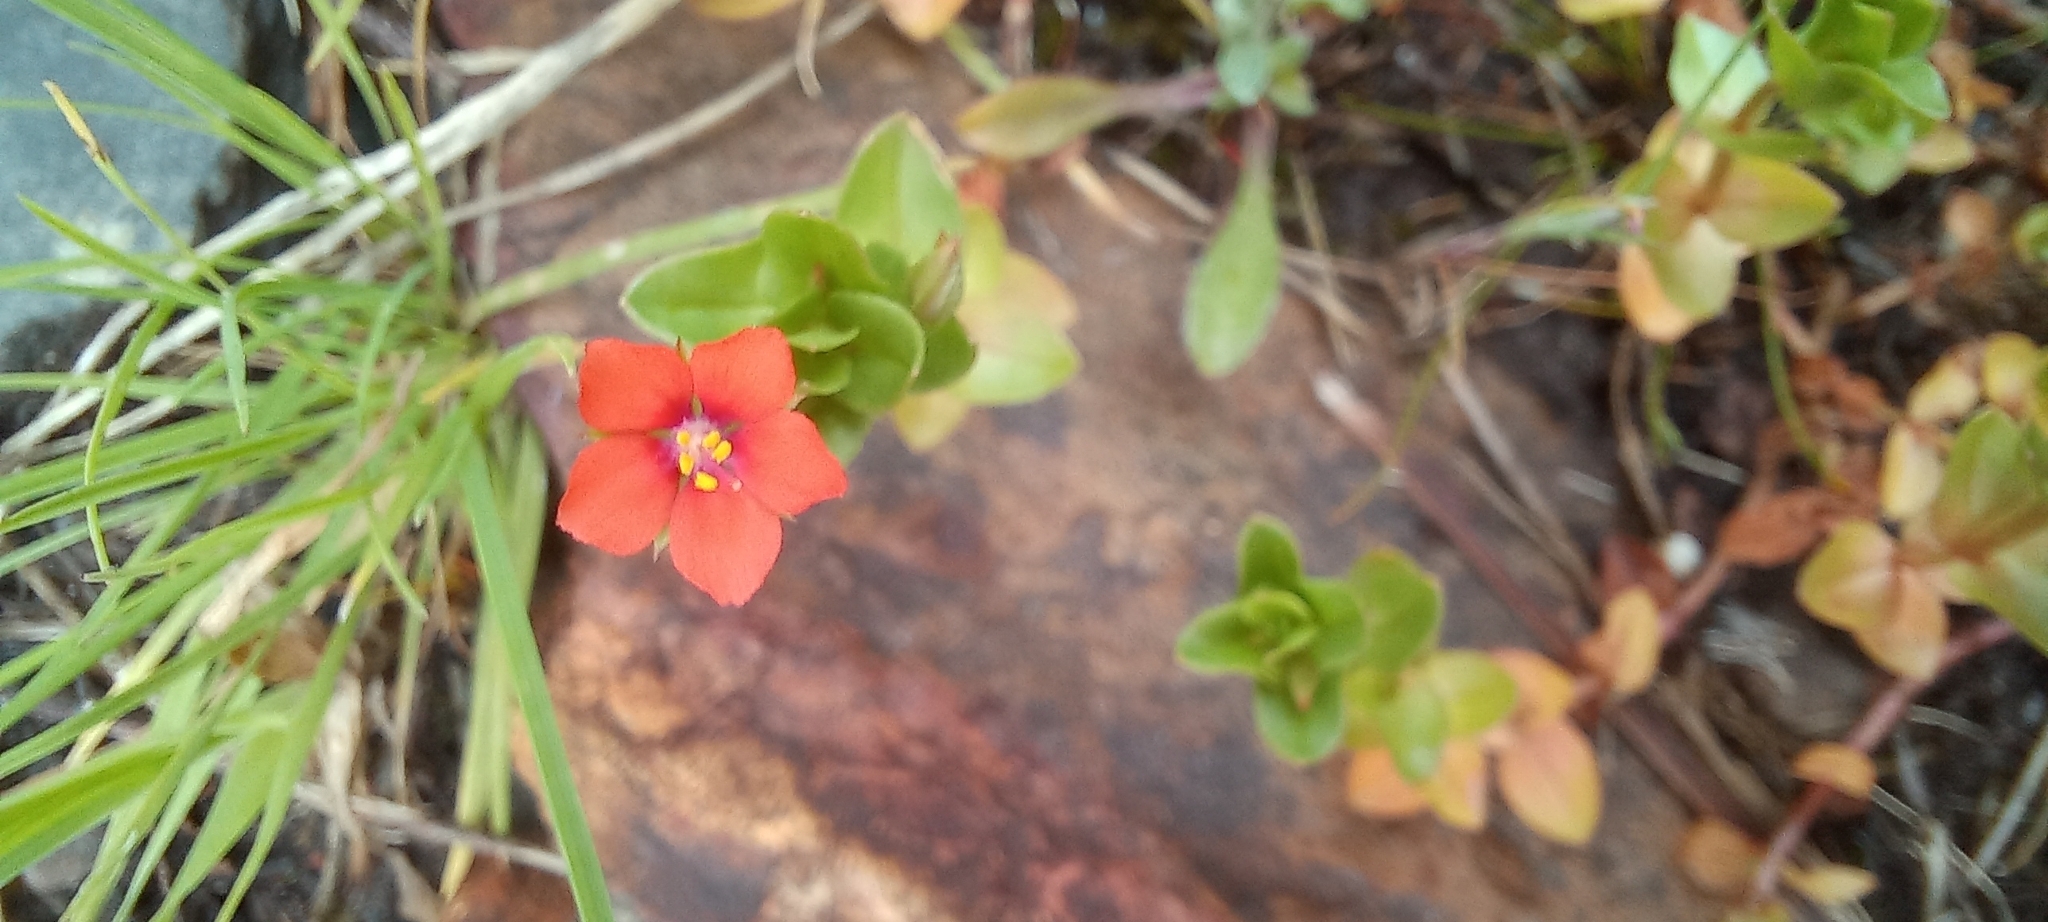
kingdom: Plantae
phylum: Tracheophyta
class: Magnoliopsida
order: Ericales
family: Primulaceae
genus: Lysimachia
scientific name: Lysimachia arvensis
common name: Scarlet pimpernel
